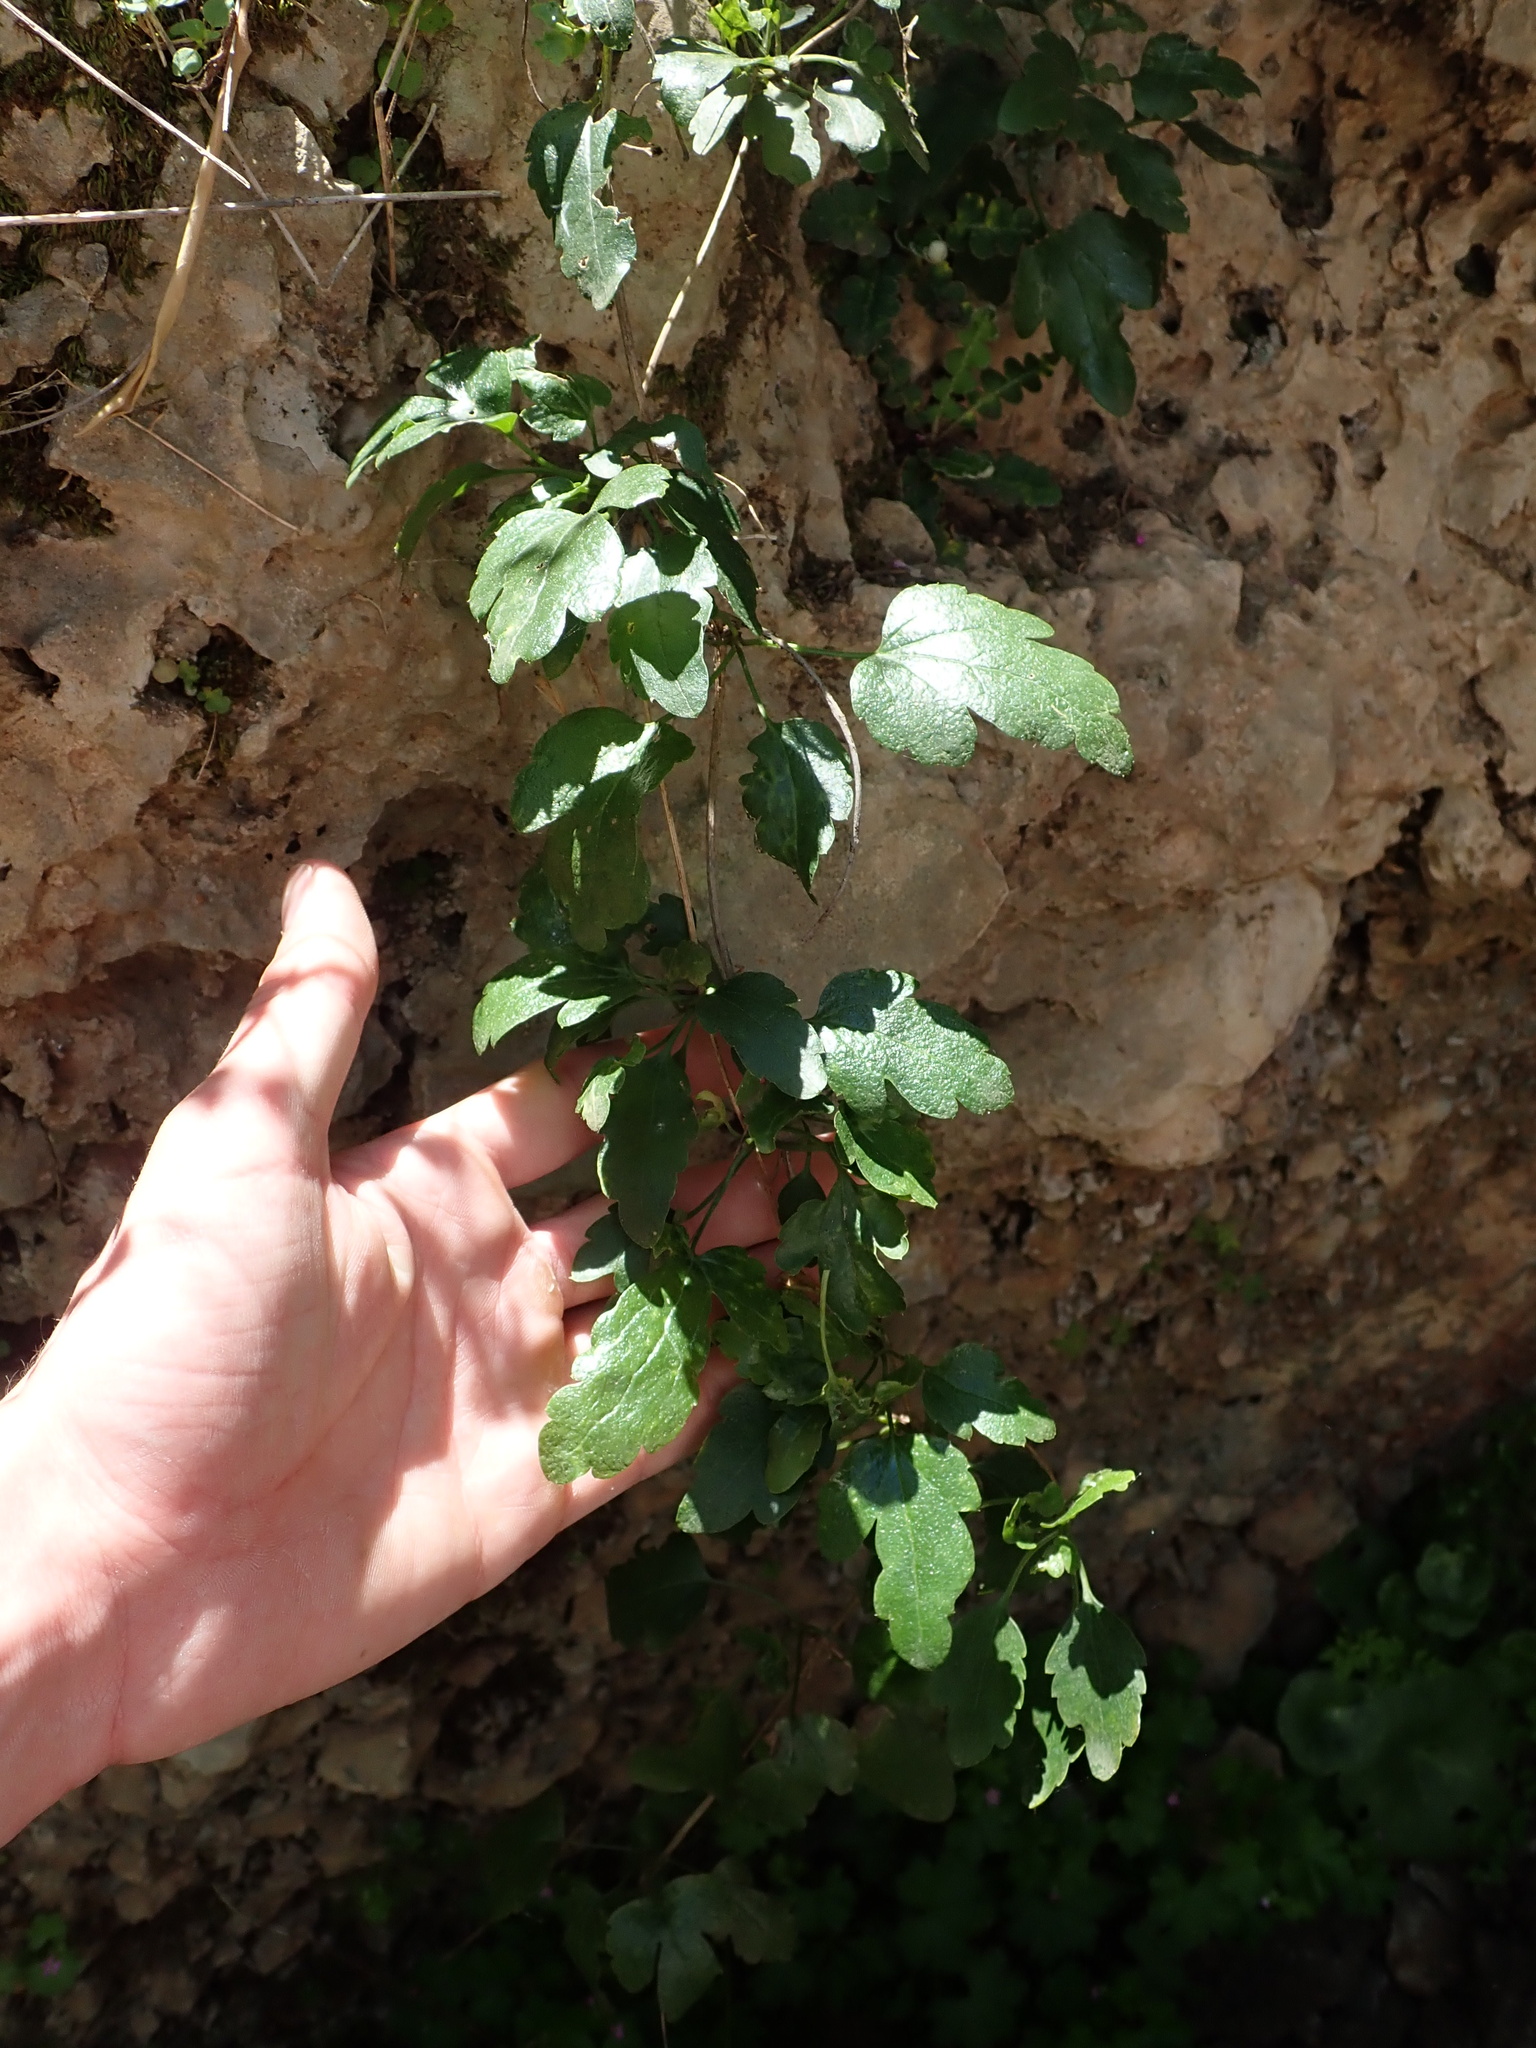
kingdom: Plantae
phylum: Tracheophyta
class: Magnoliopsida
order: Ranunculales
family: Ranunculaceae
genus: Clematis
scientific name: Clematis cirrhosa
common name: Early virgin's-bower
